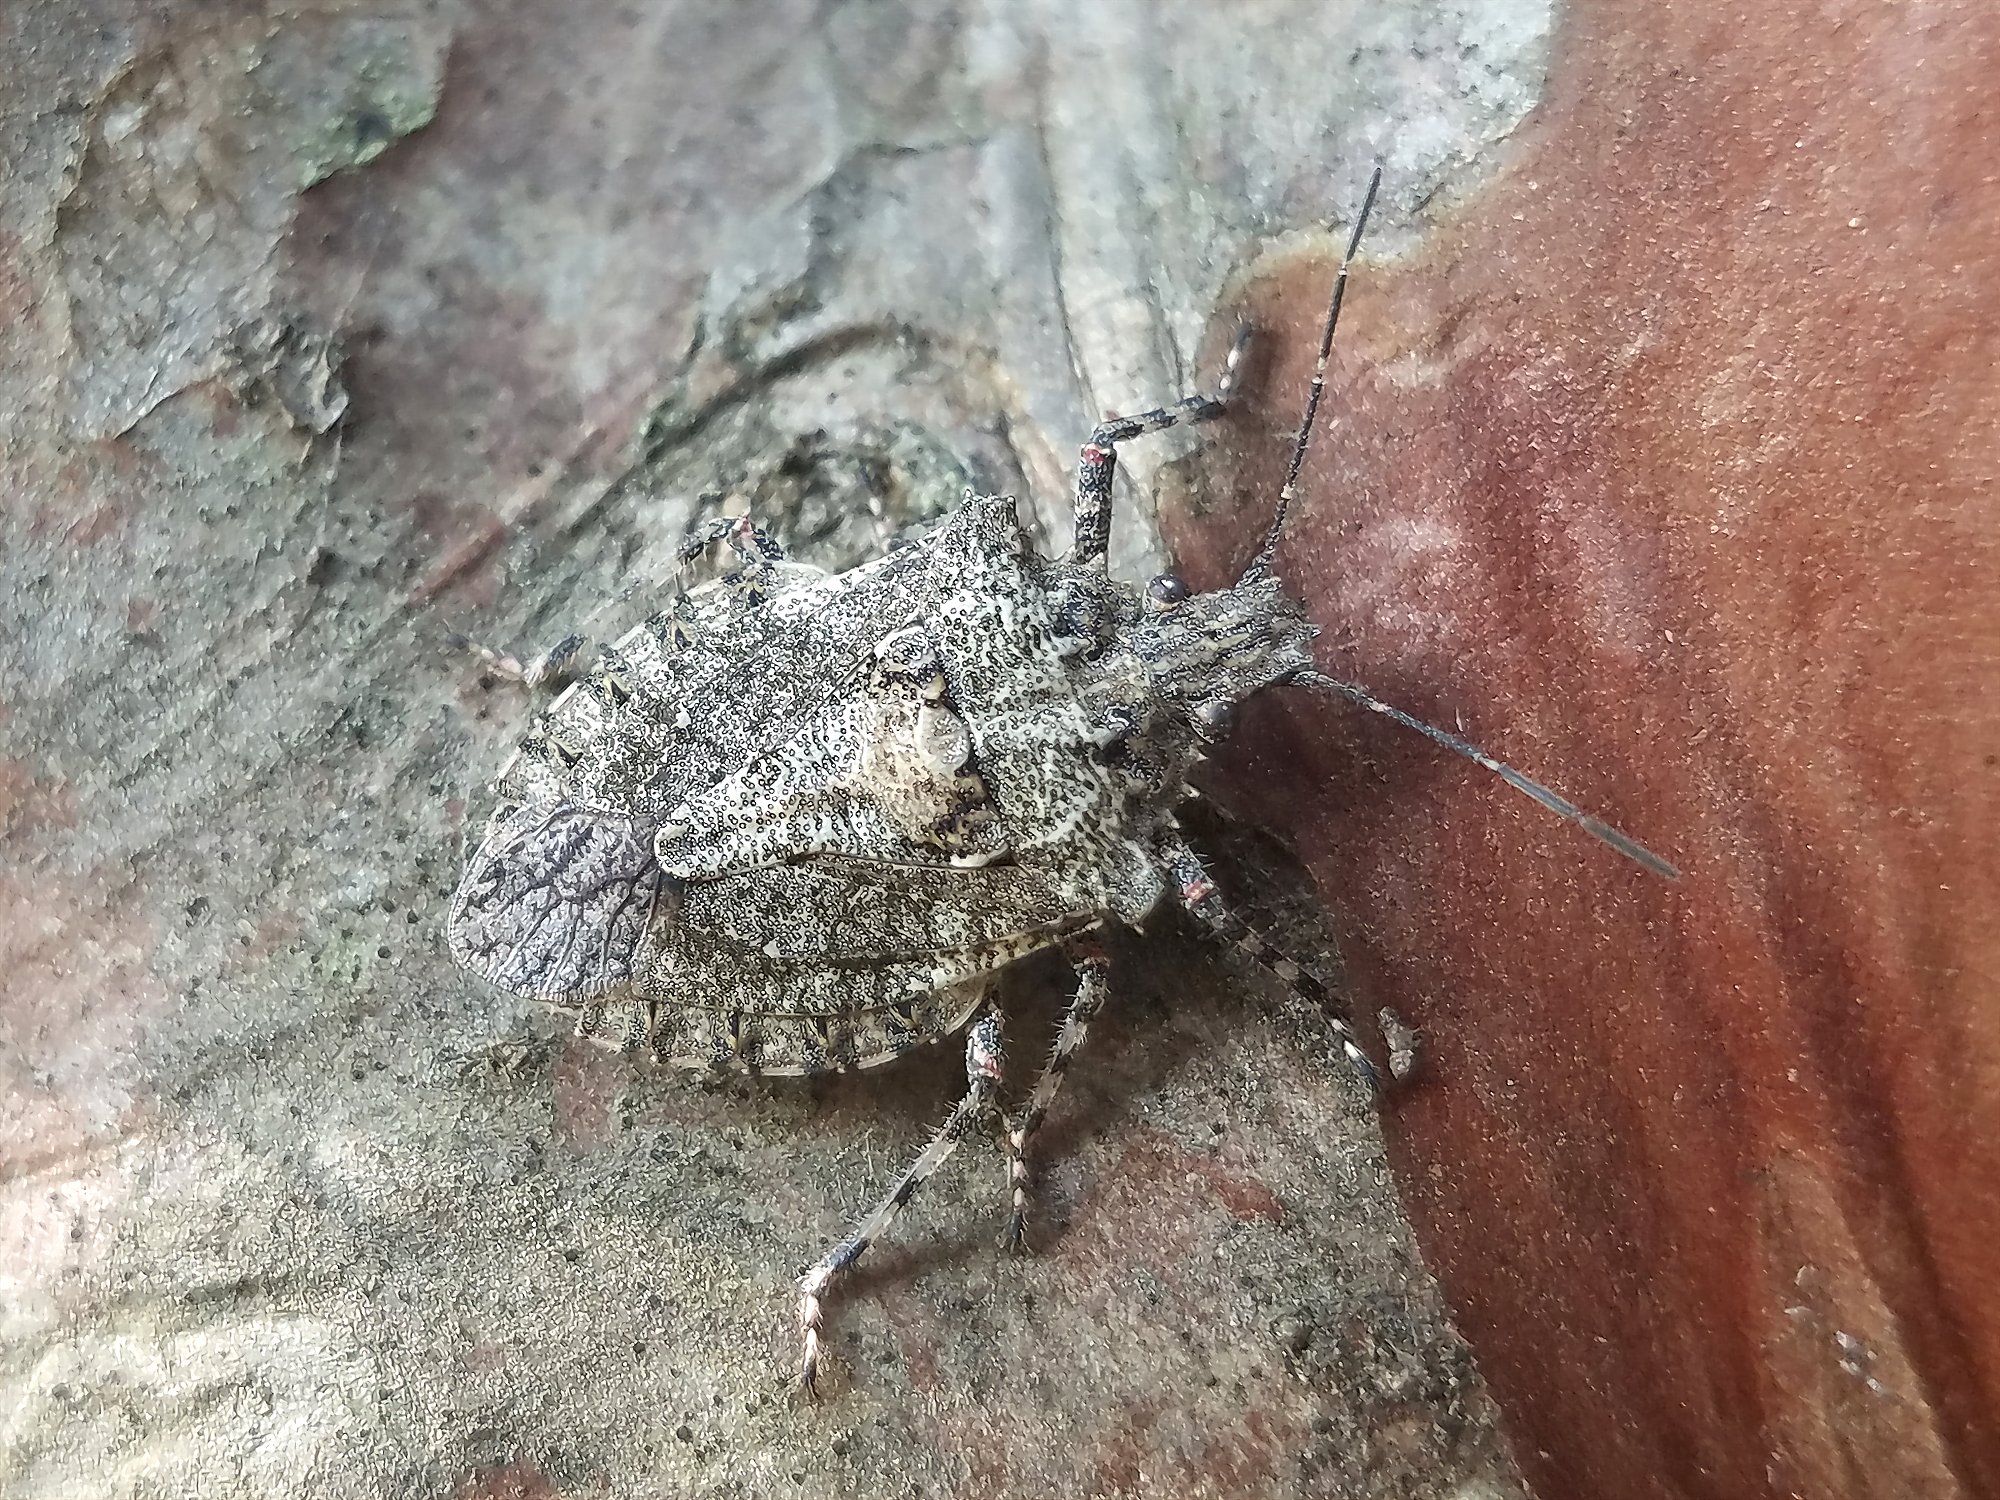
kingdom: Animalia
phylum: Arthropoda
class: Insecta
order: Hemiptera
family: Pentatomidae
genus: Brochymena
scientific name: Brochymena arborea
